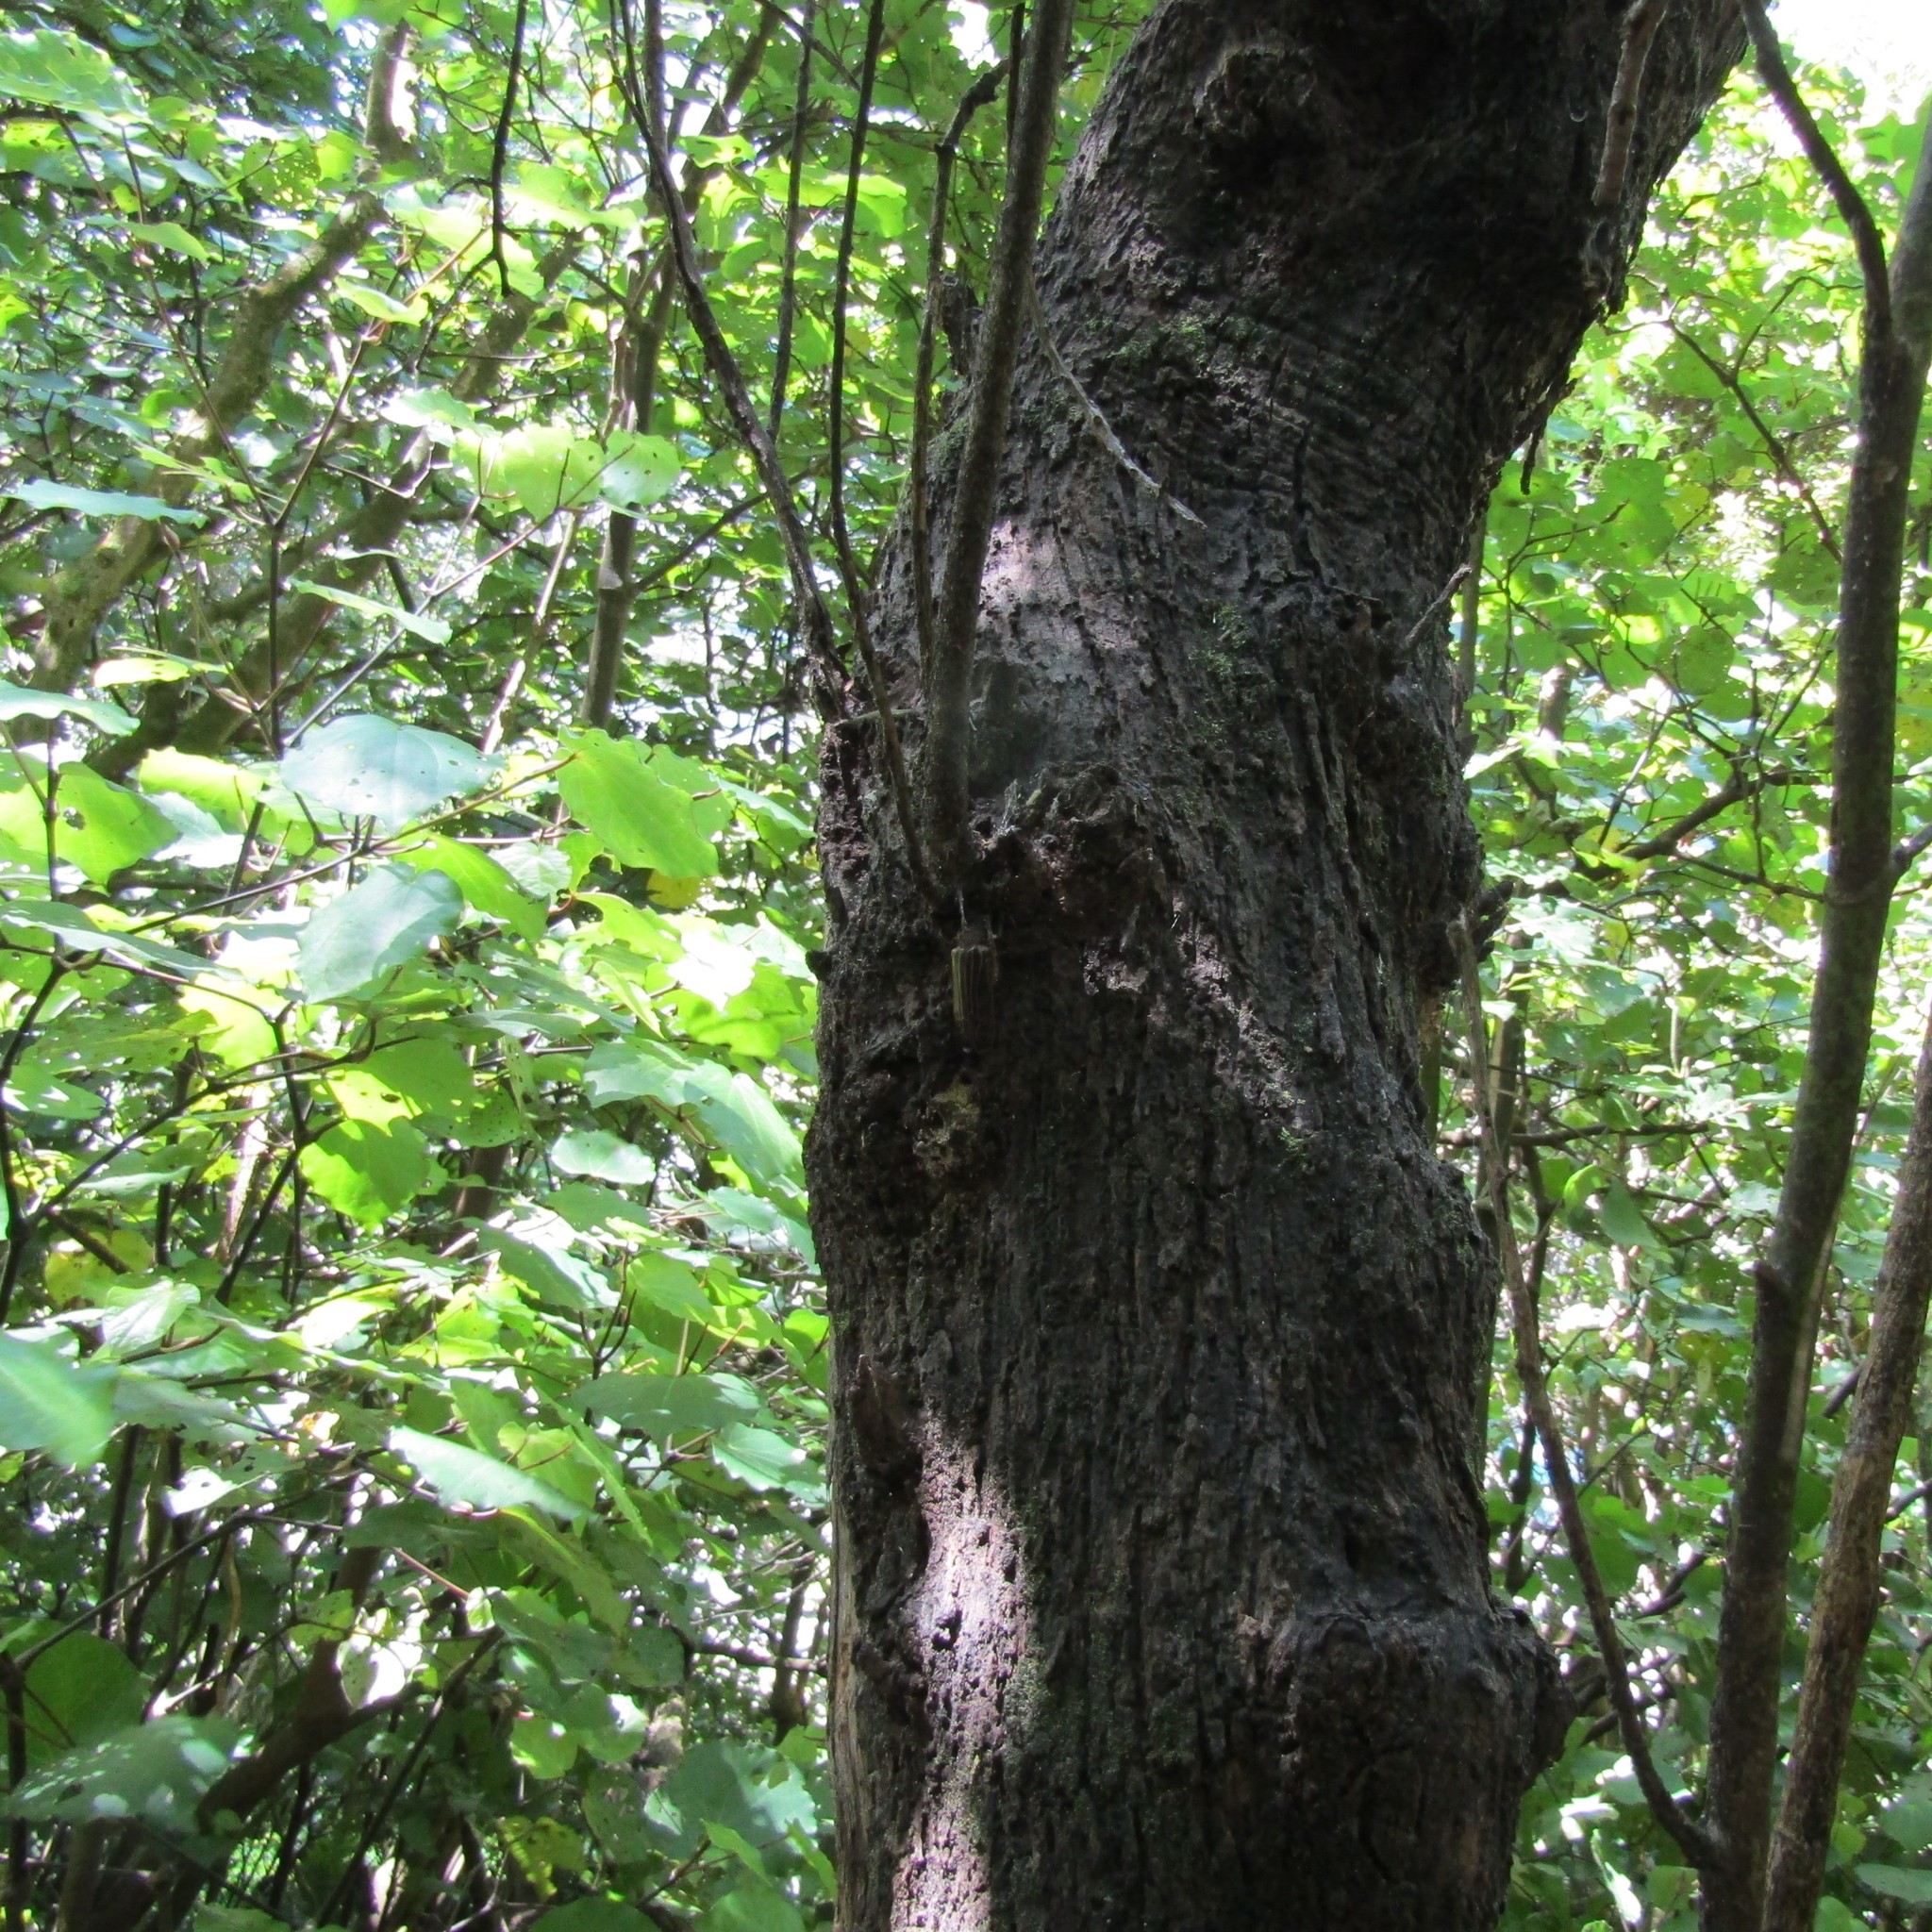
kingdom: Animalia
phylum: Arthropoda
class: Insecta
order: Coleoptera
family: Cerambycidae
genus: Prionoplus
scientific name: Prionoplus reticularis
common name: Huhu beetle
